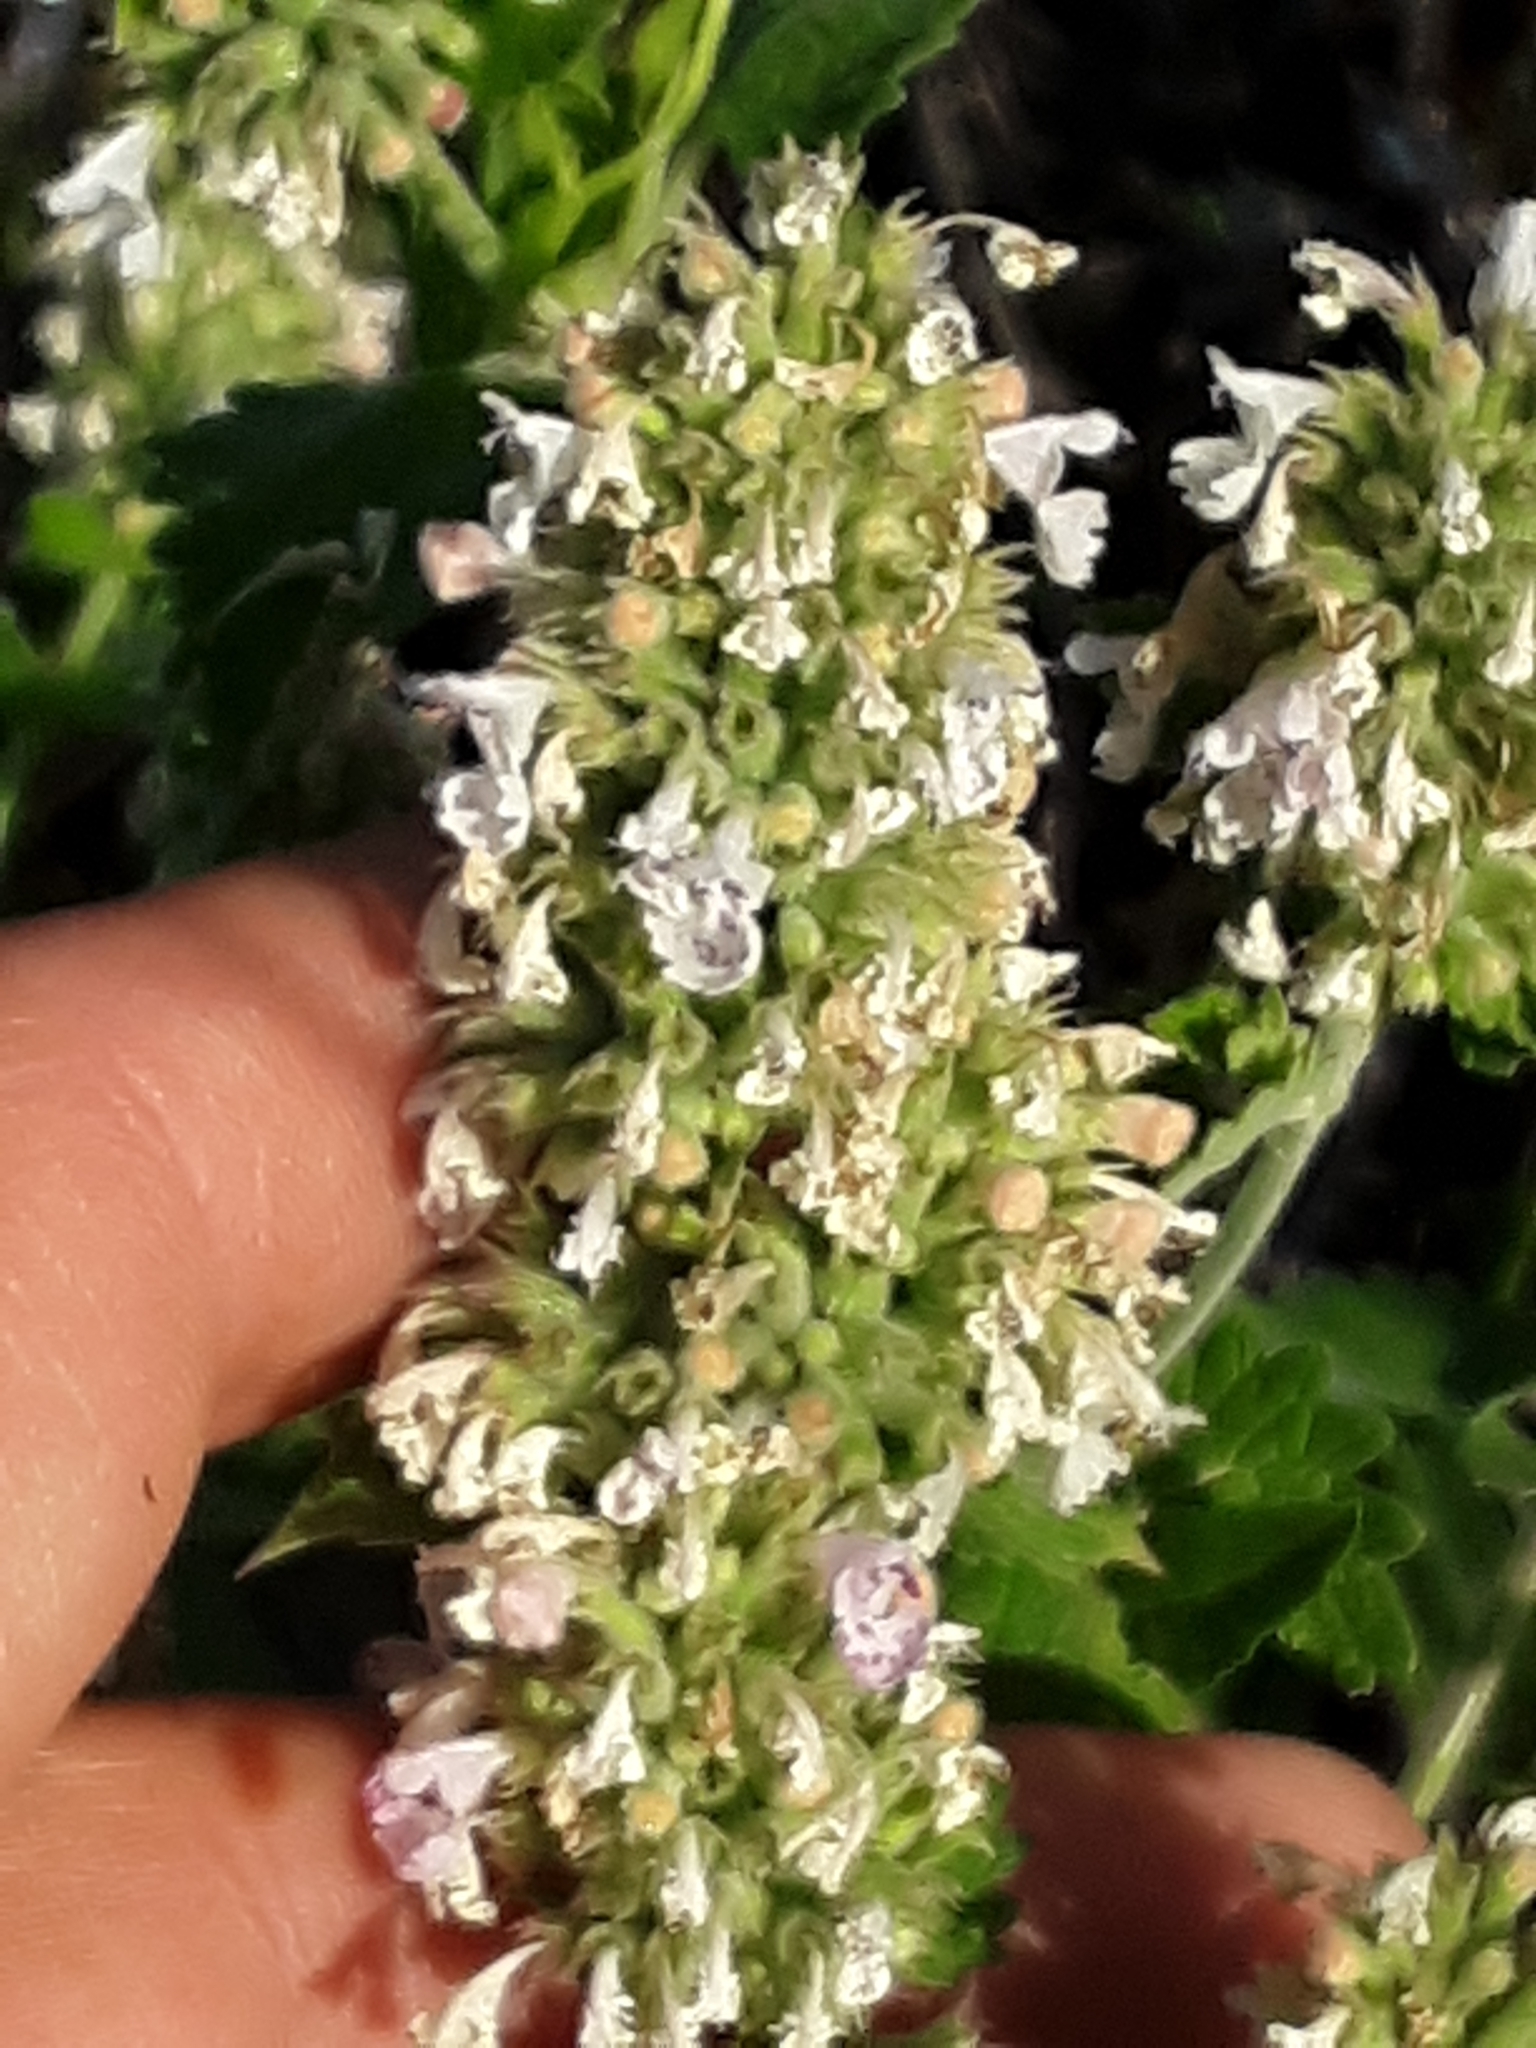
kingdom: Plantae
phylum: Tracheophyta
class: Magnoliopsida
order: Lamiales
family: Lamiaceae
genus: Nepeta
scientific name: Nepeta cataria
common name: Catnip
